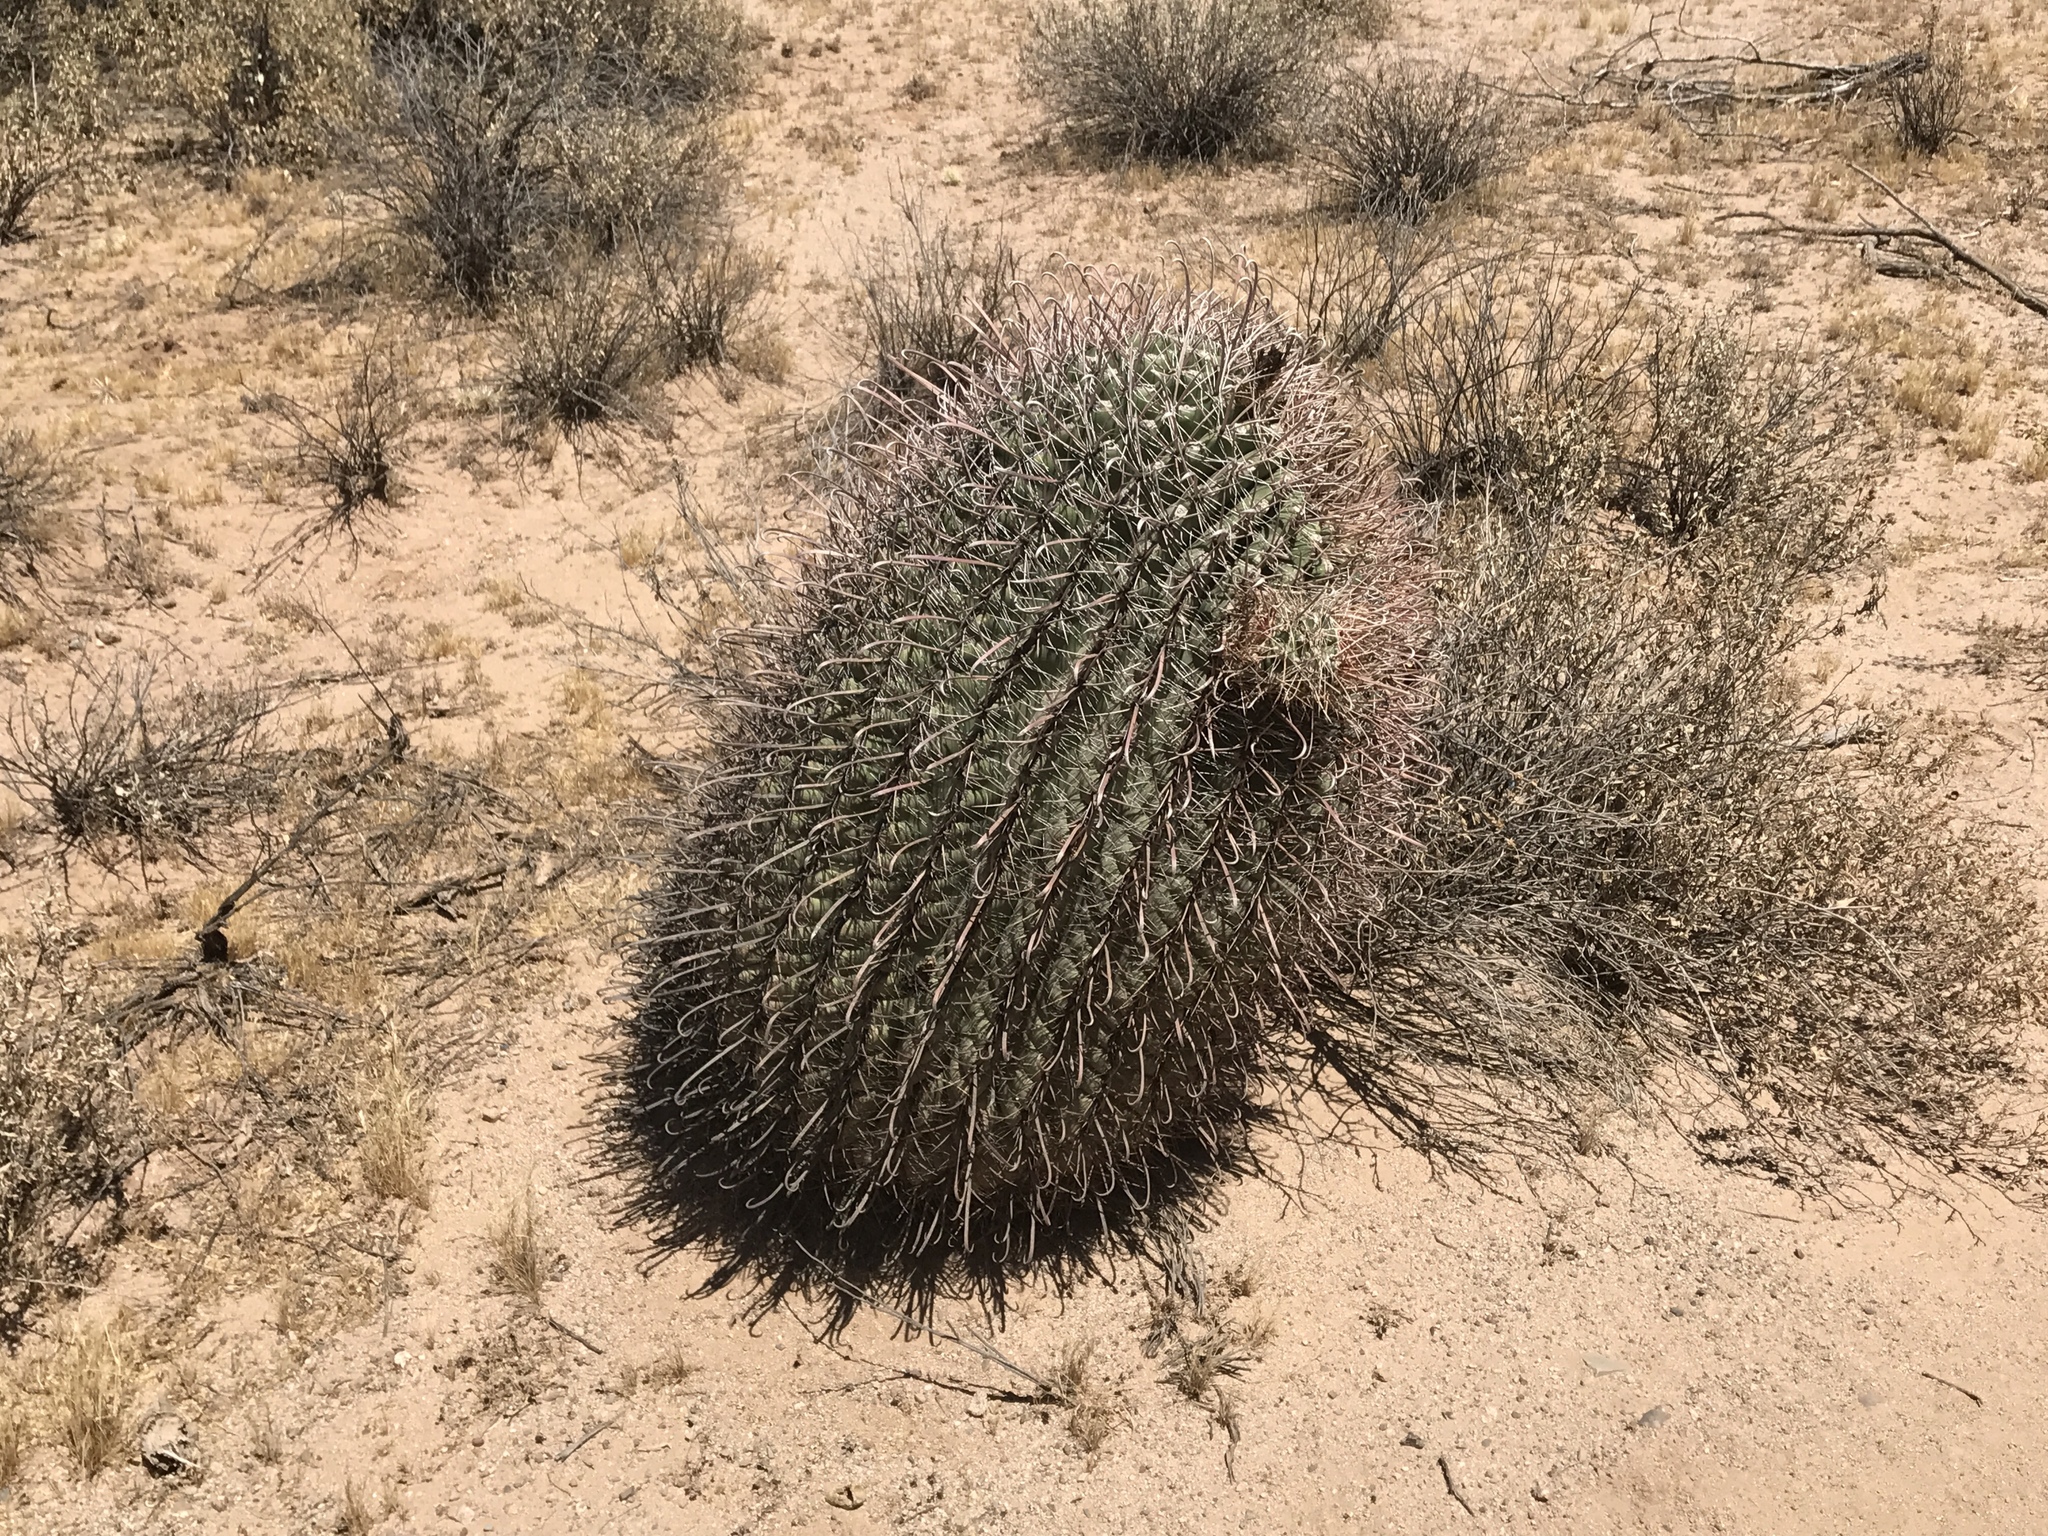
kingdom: Plantae
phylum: Tracheophyta
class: Magnoliopsida
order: Caryophyllales
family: Cactaceae
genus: Ferocactus
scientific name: Ferocactus wislizeni
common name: Candy barrel cactus
